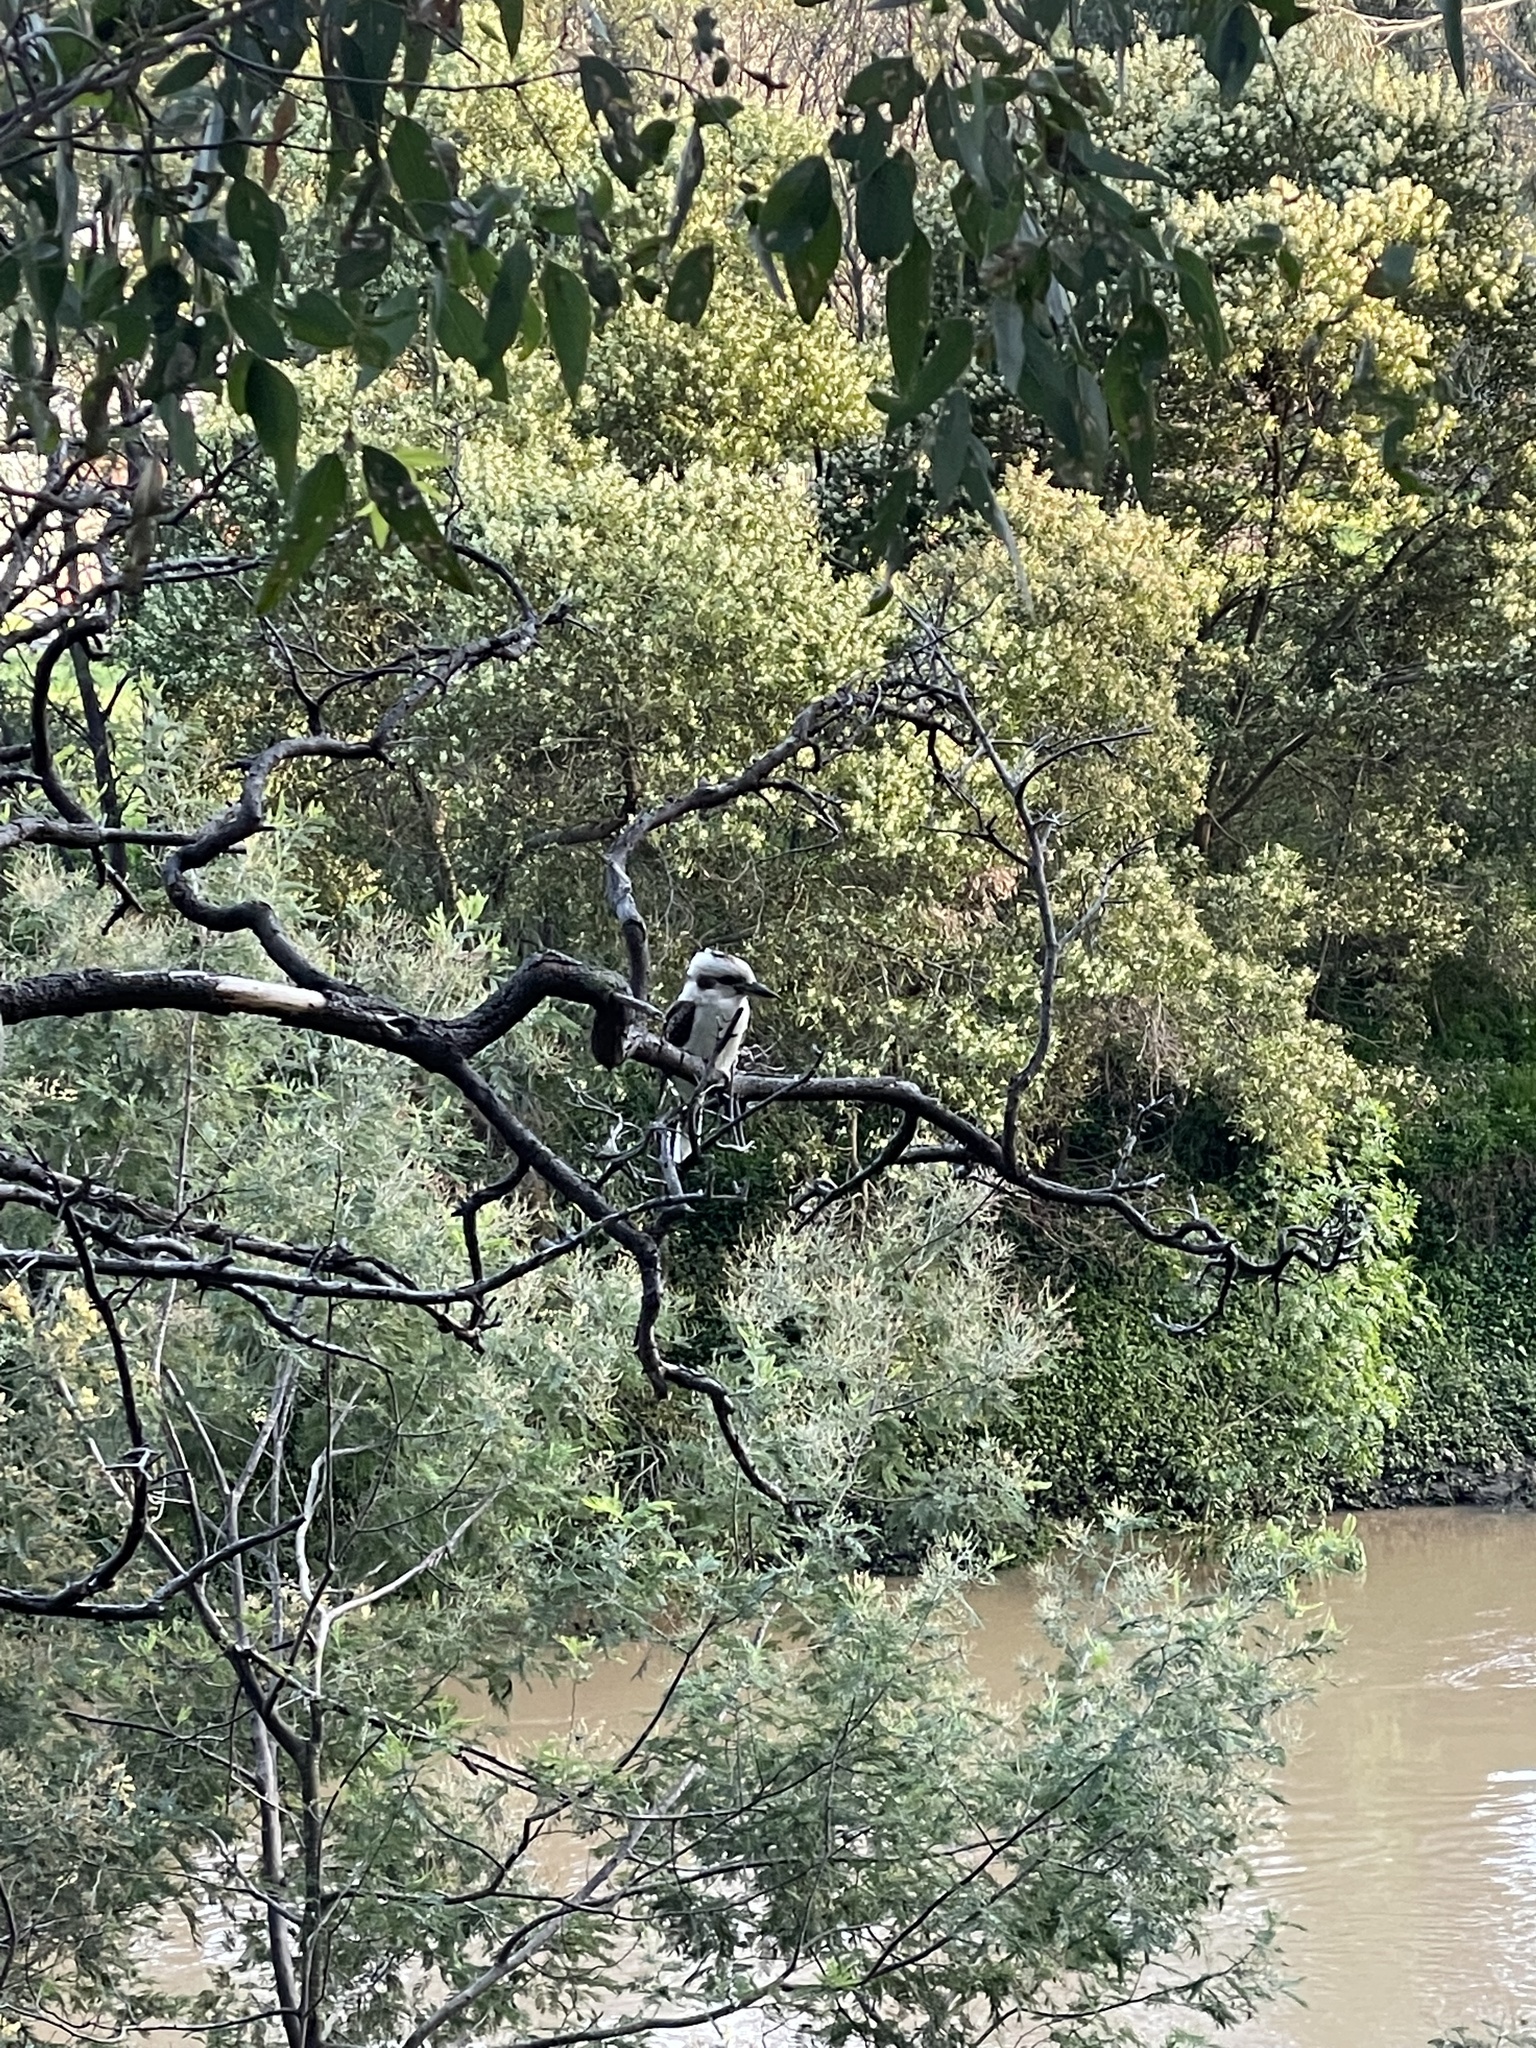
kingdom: Animalia
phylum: Chordata
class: Aves
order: Coraciiformes
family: Alcedinidae
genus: Dacelo
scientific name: Dacelo novaeguineae
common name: Laughing kookaburra
